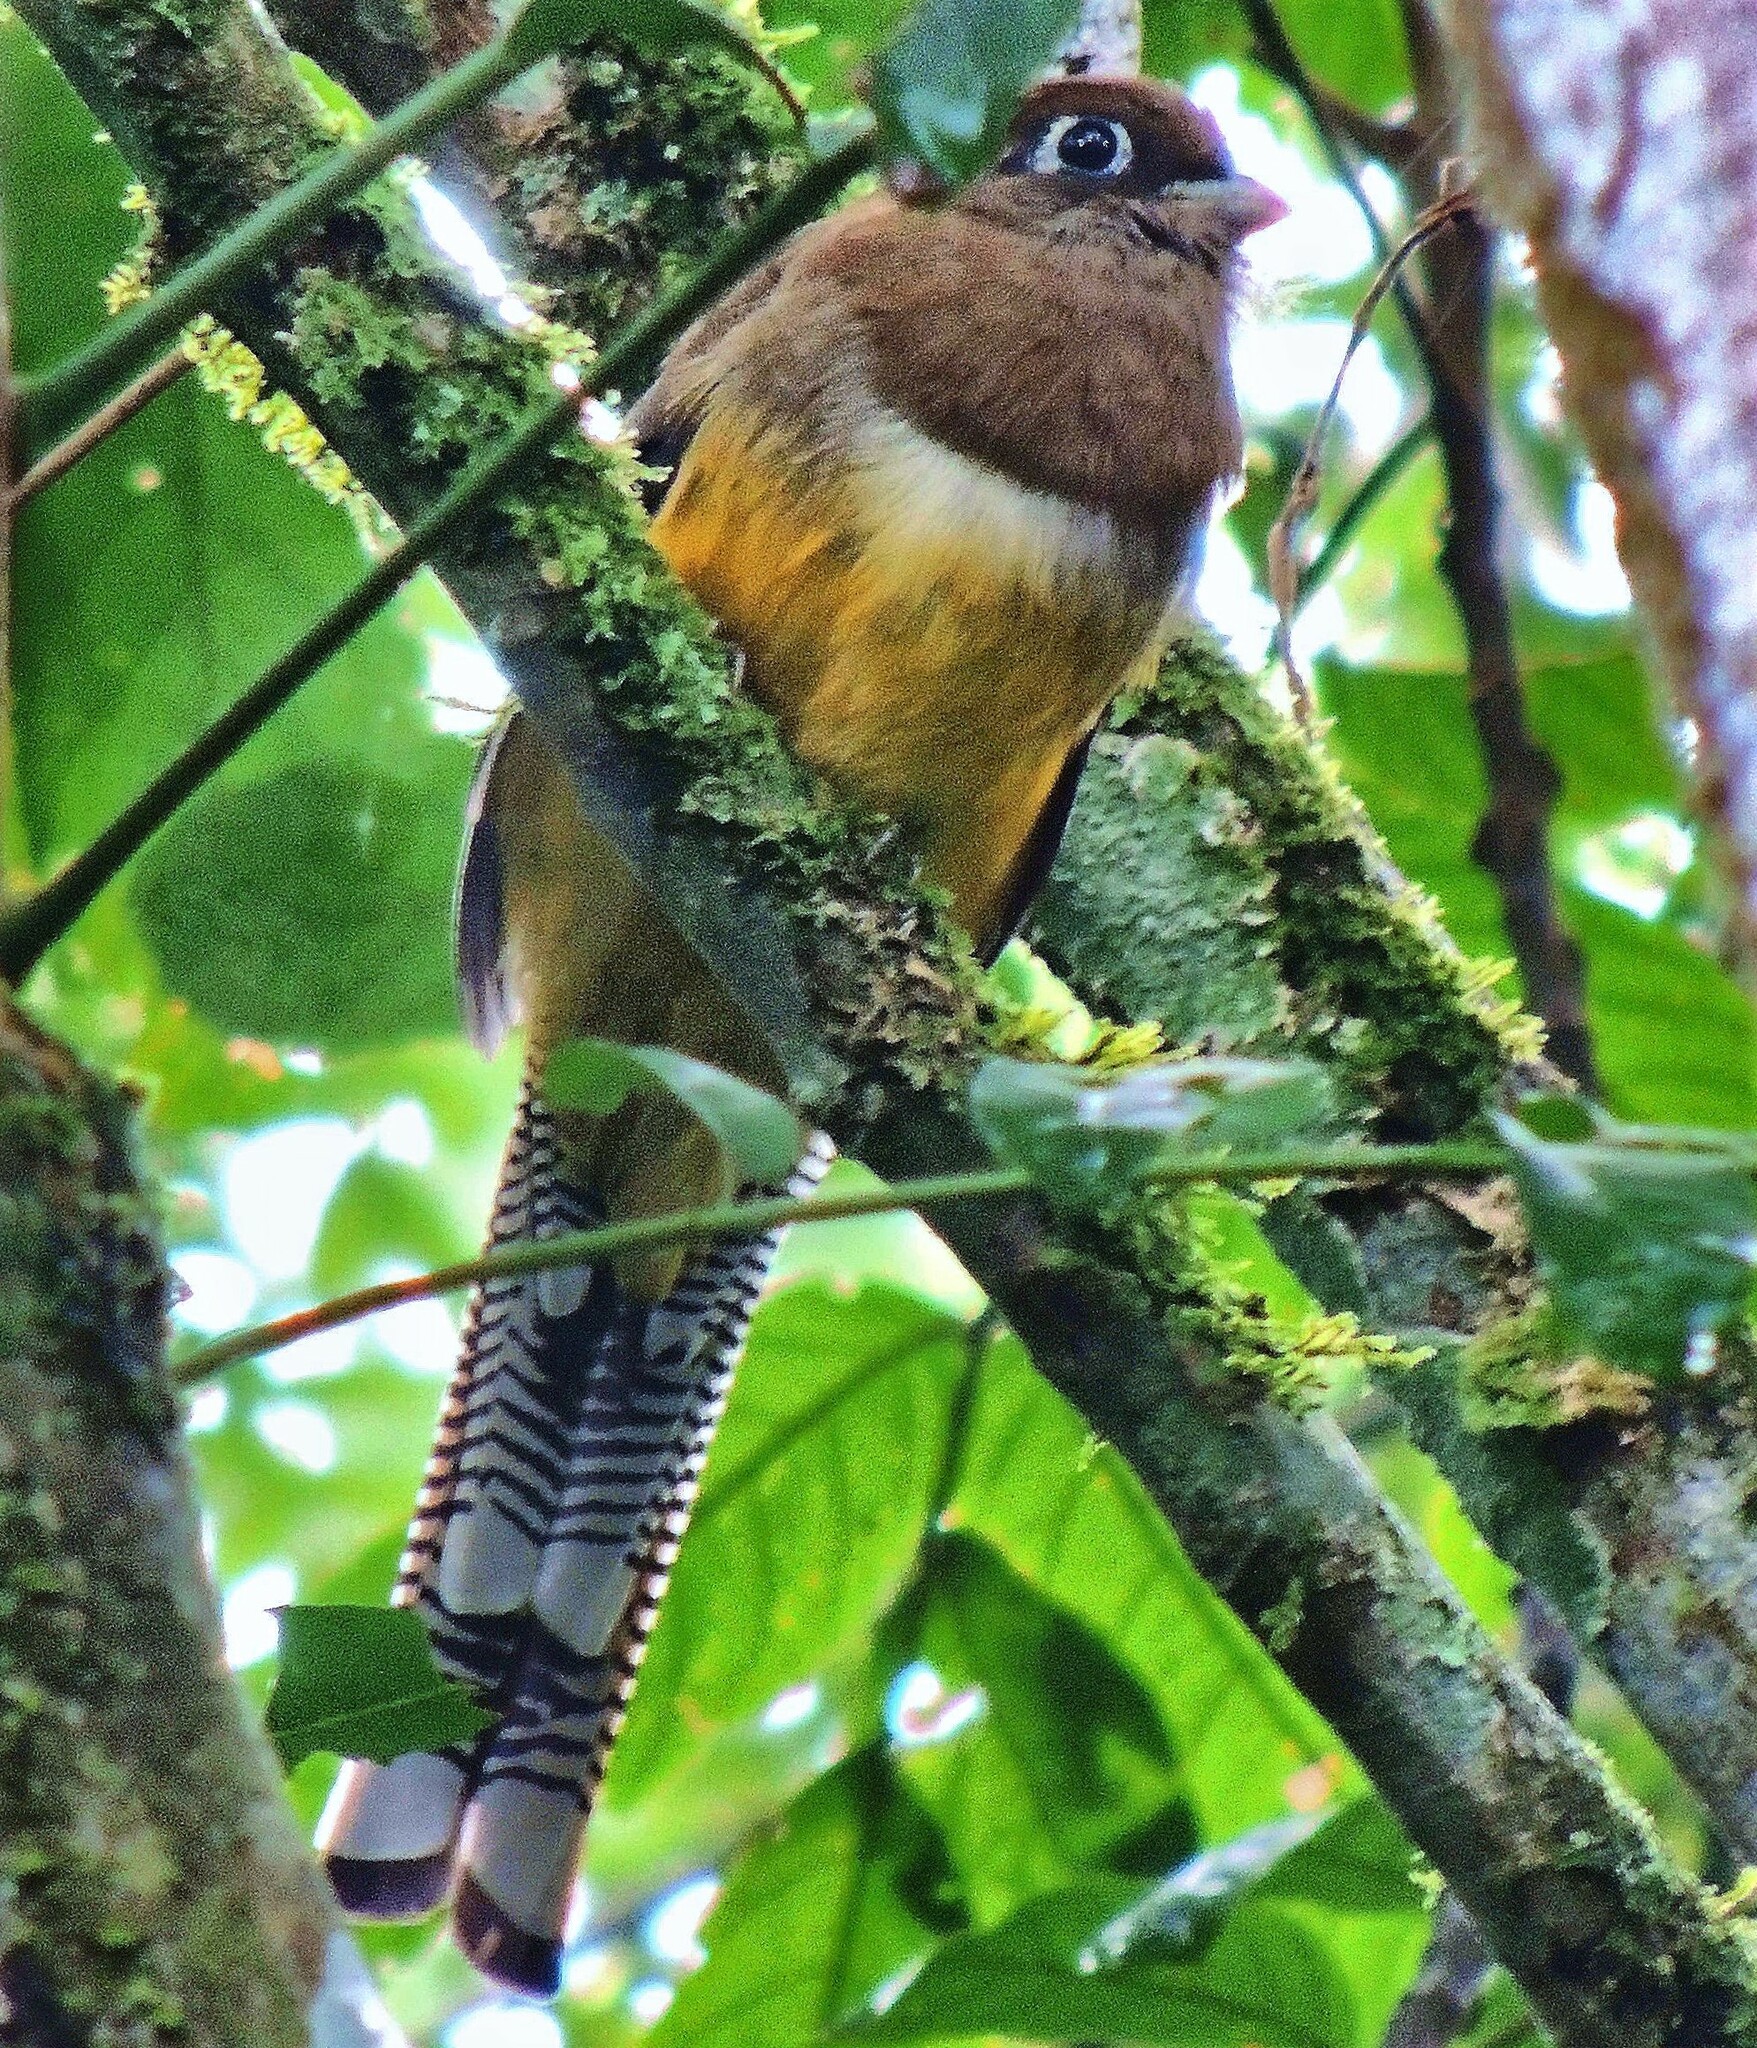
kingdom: Animalia
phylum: Chordata
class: Aves
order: Trogoniformes
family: Trogonidae
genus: Trogon
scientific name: Trogon rufus
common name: Black-throated trogon
